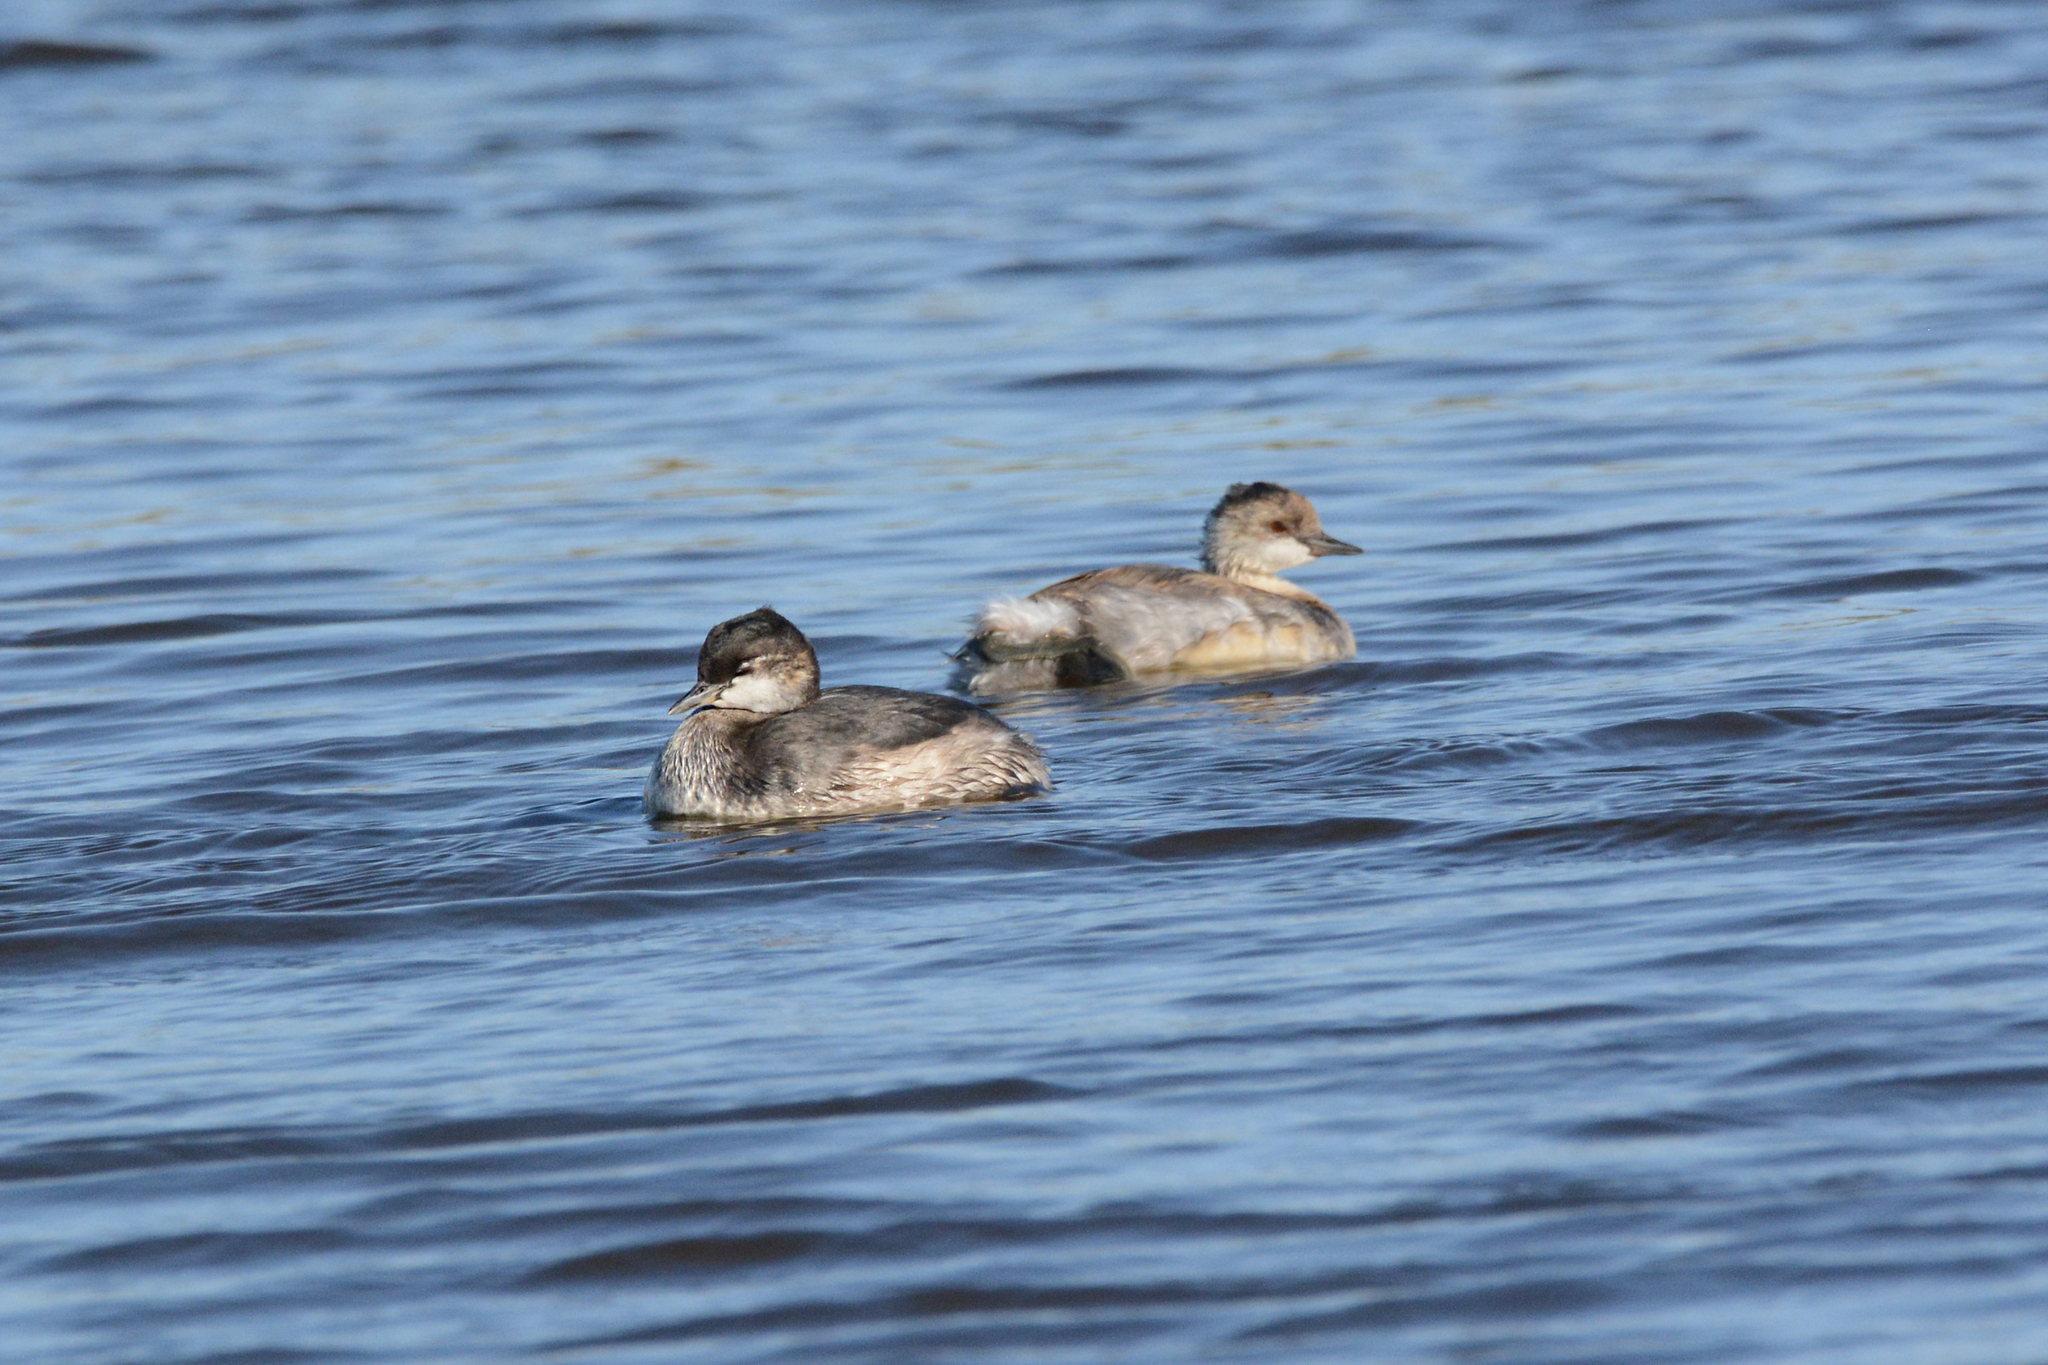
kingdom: Animalia
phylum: Chordata
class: Aves
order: Podicipediformes
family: Podicipedidae
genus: Tachybaptus
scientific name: Tachybaptus ruficollis
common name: Little grebe
